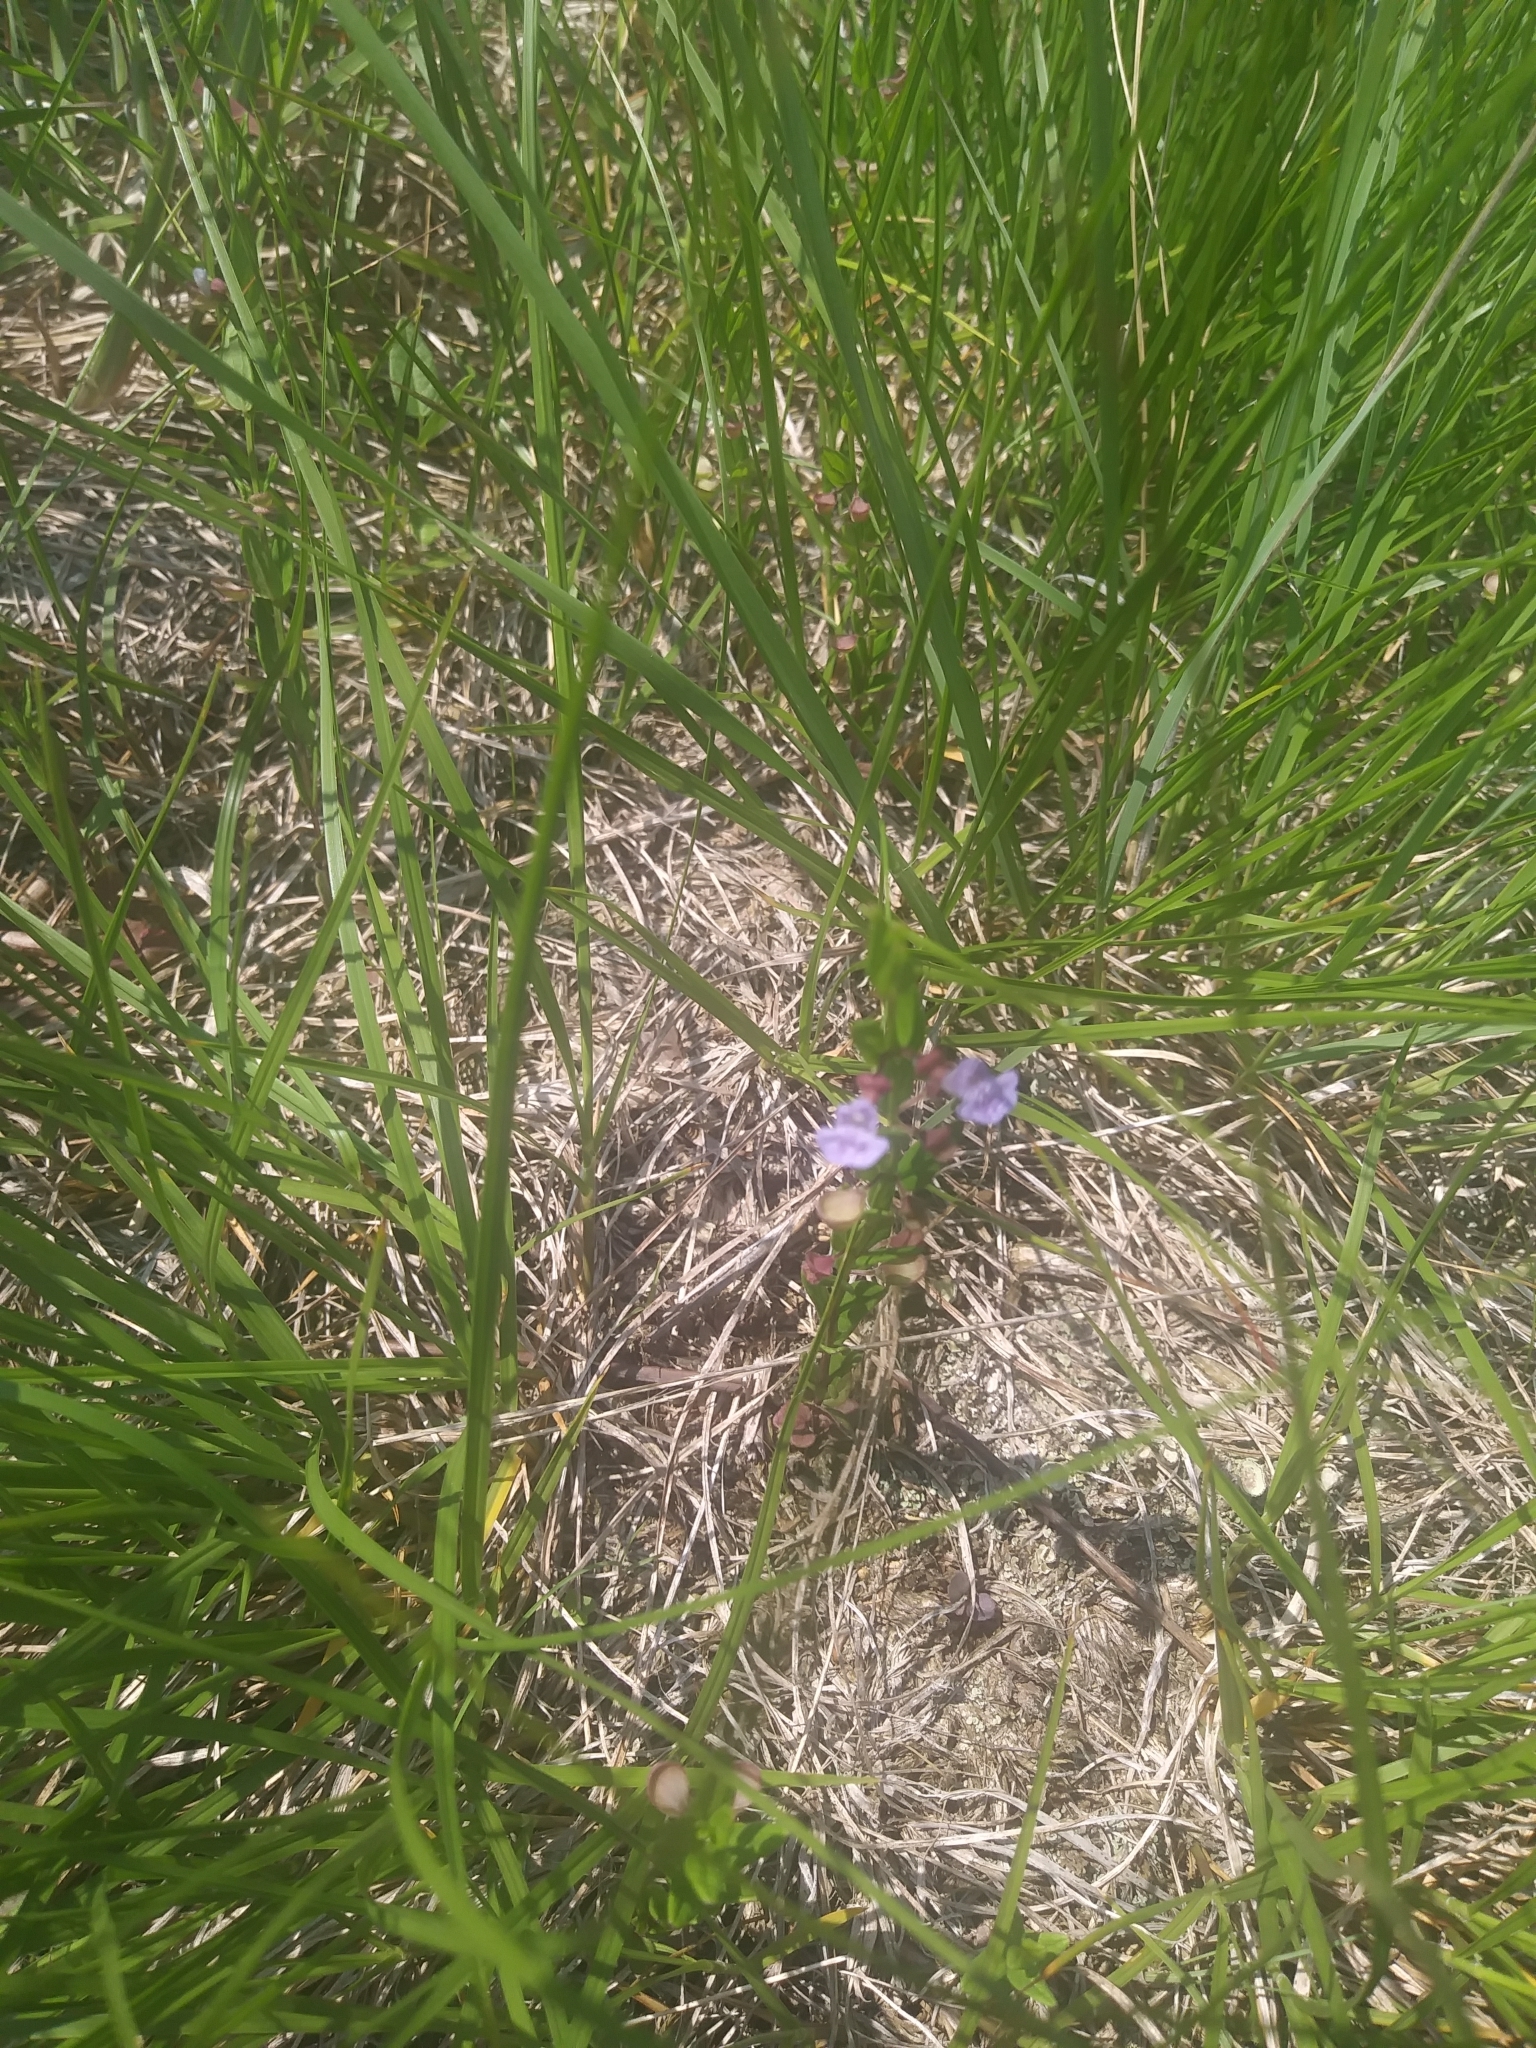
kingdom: Plantae
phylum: Tracheophyta
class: Magnoliopsida
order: Lamiales
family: Lamiaceae
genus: Scutellaria
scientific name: Scutellaria parvula
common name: Little scullcap
